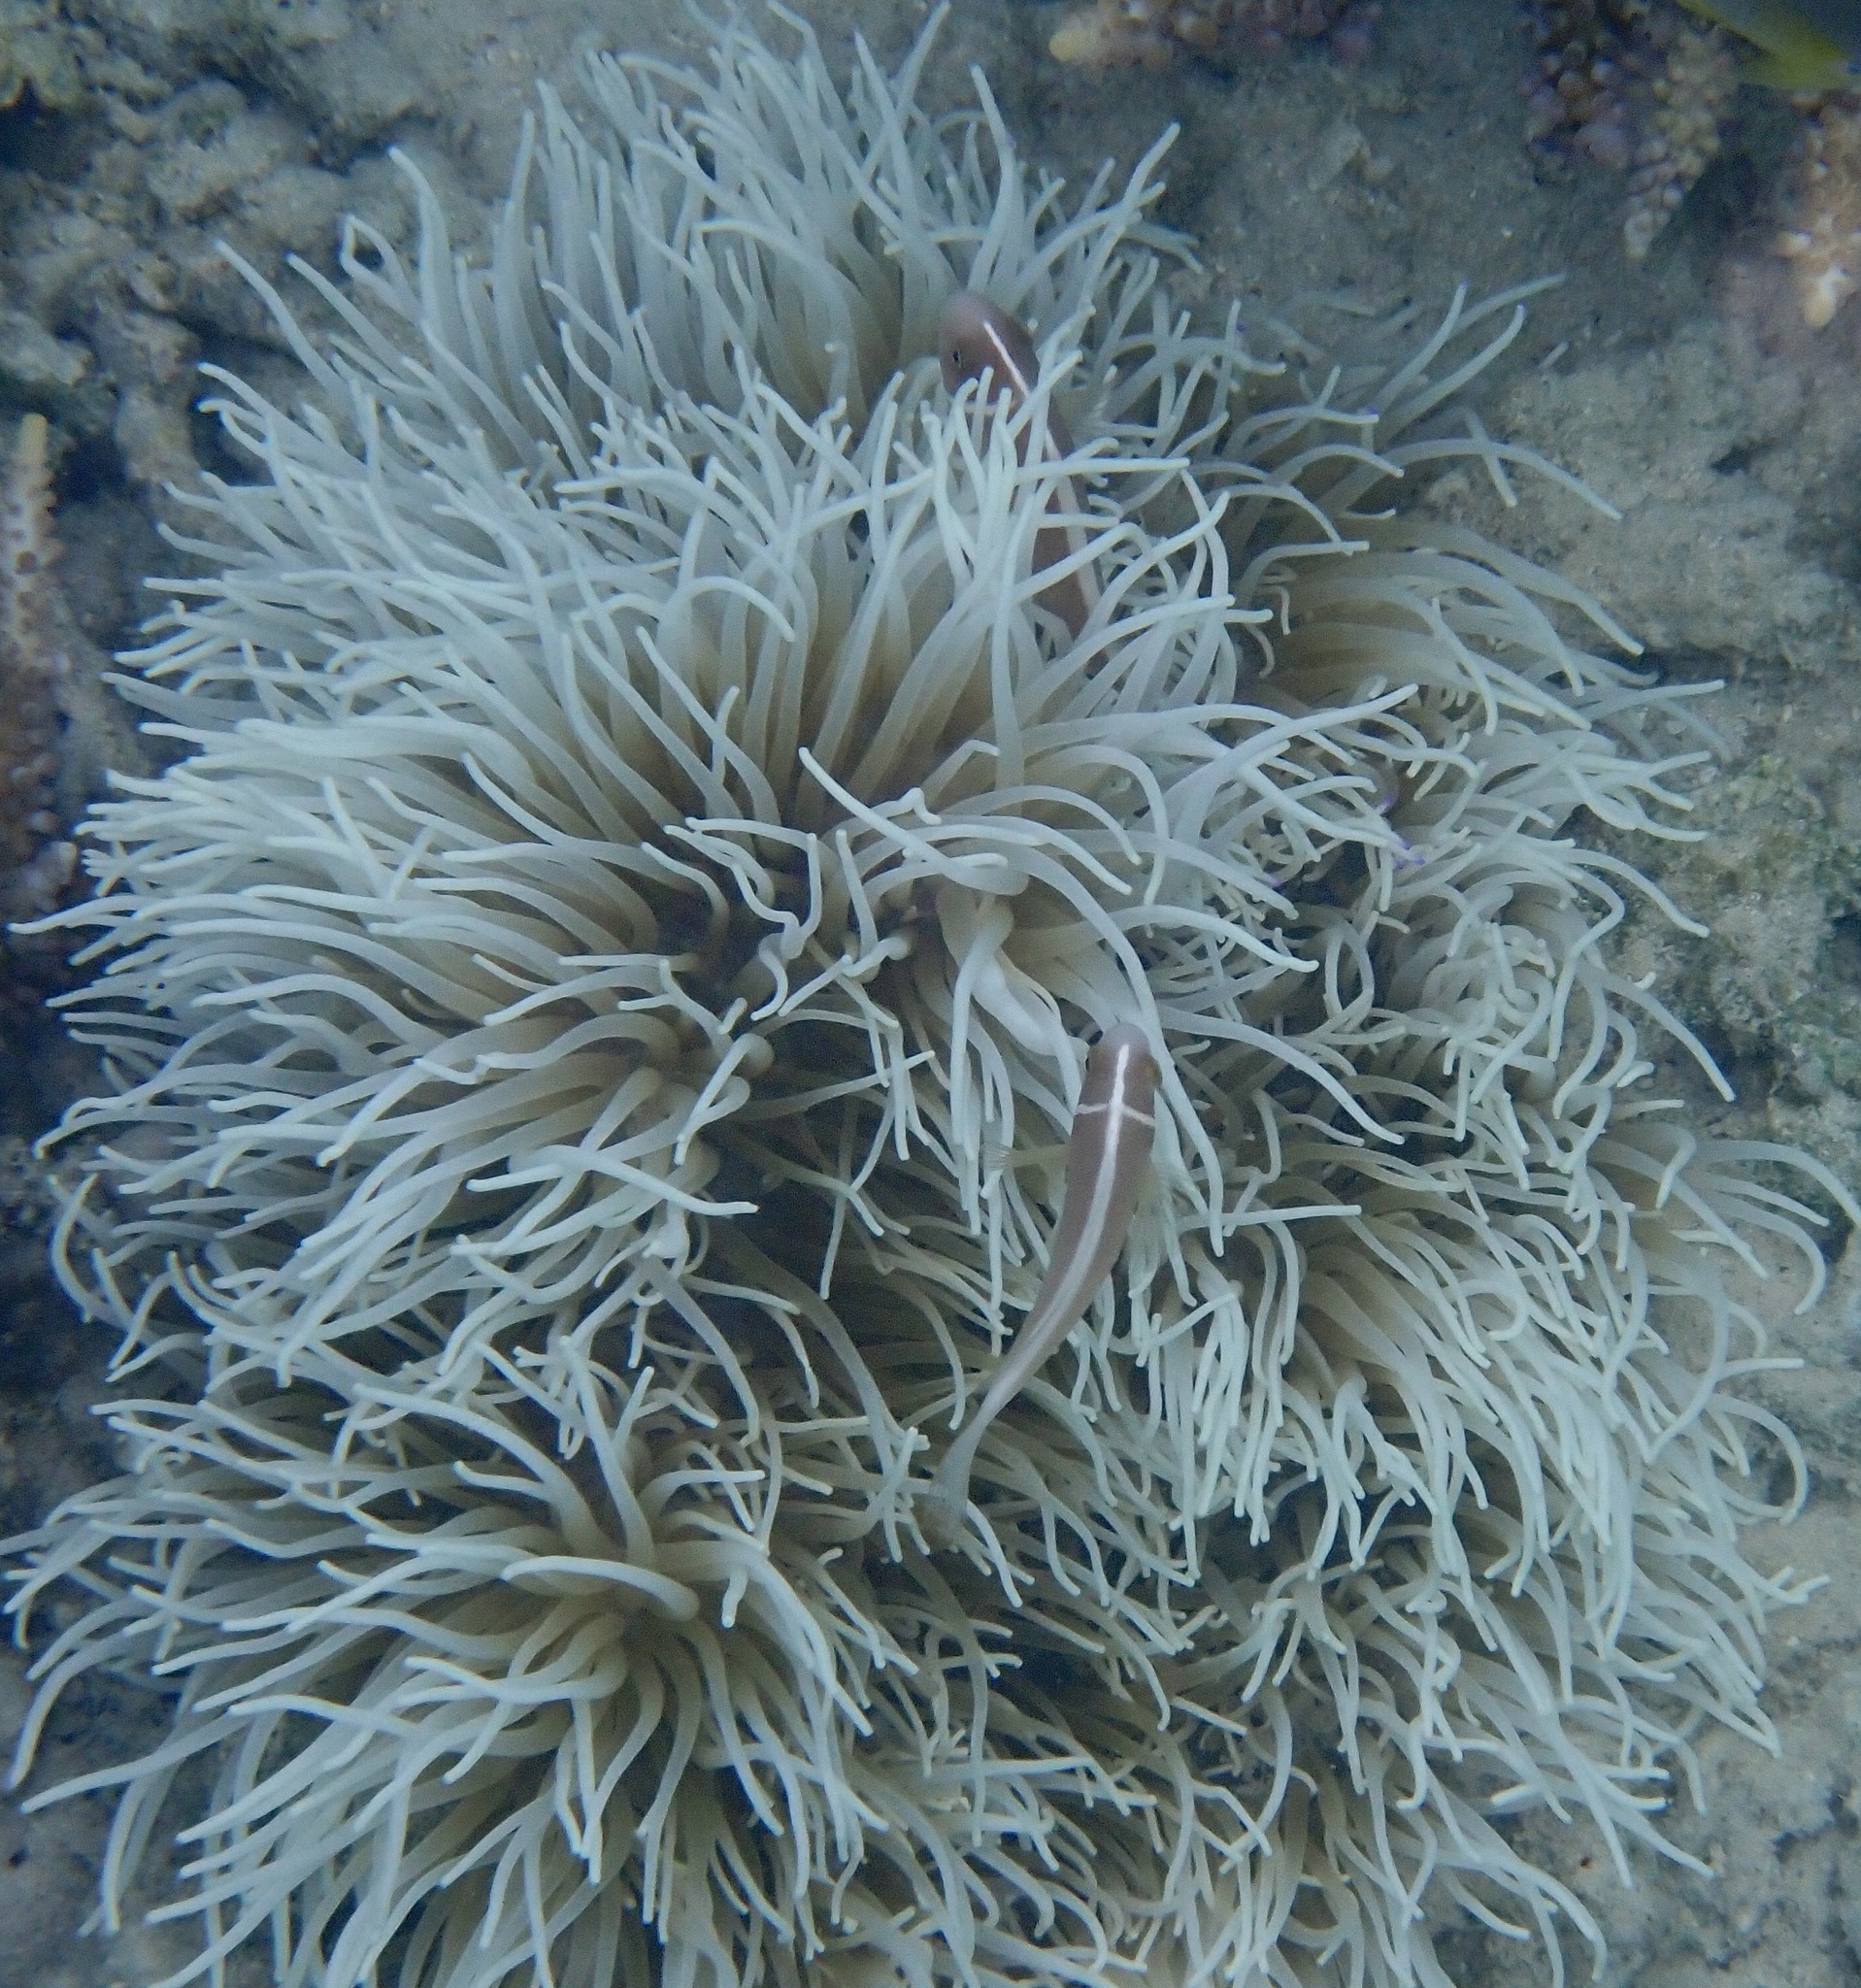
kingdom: Animalia
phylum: Cnidaria
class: Anthozoa
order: Actiniaria
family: Stichodactylidae
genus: Radianthus
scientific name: Radianthus crispa
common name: Leather anemone
